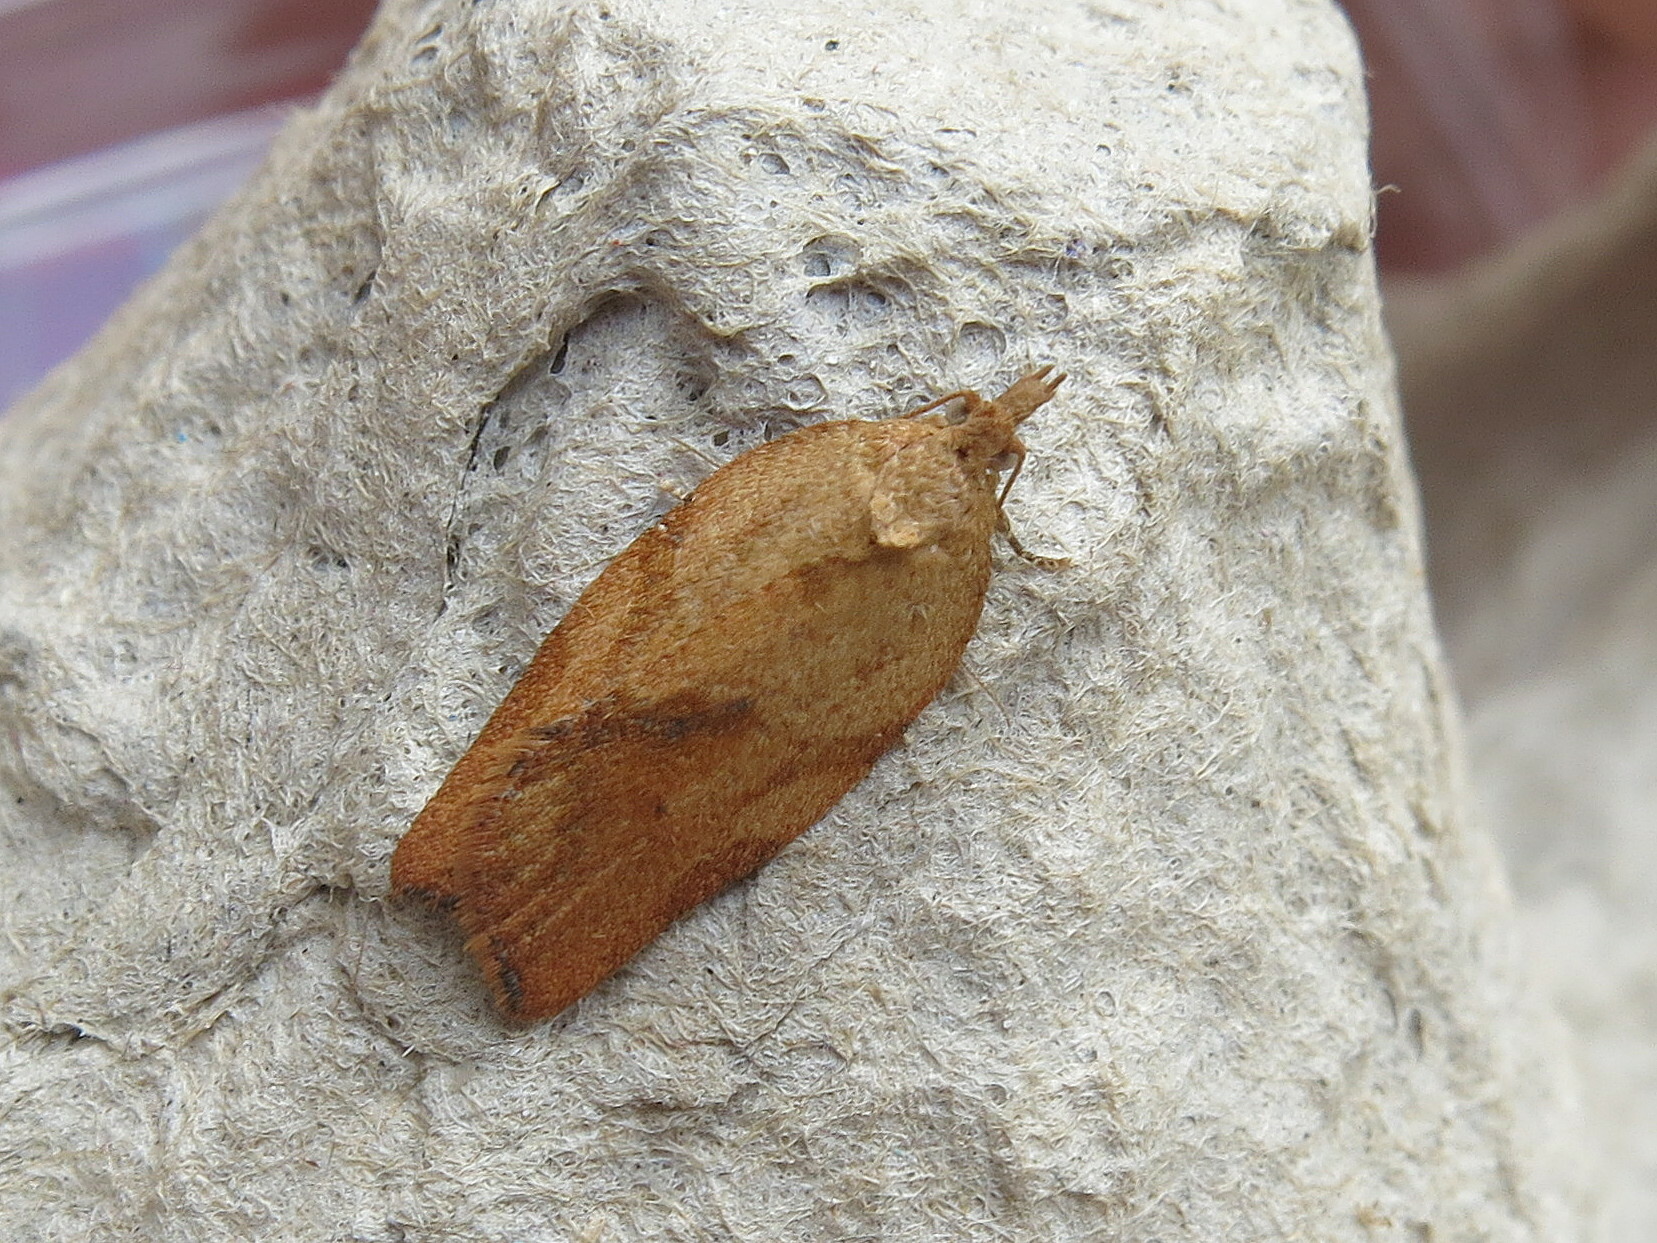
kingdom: Animalia
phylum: Arthropoda
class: Insecta
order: Lepidoptera
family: Tortricidae
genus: Epiphyas
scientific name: Epiphyas postvittana
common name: Light brown apple moth
